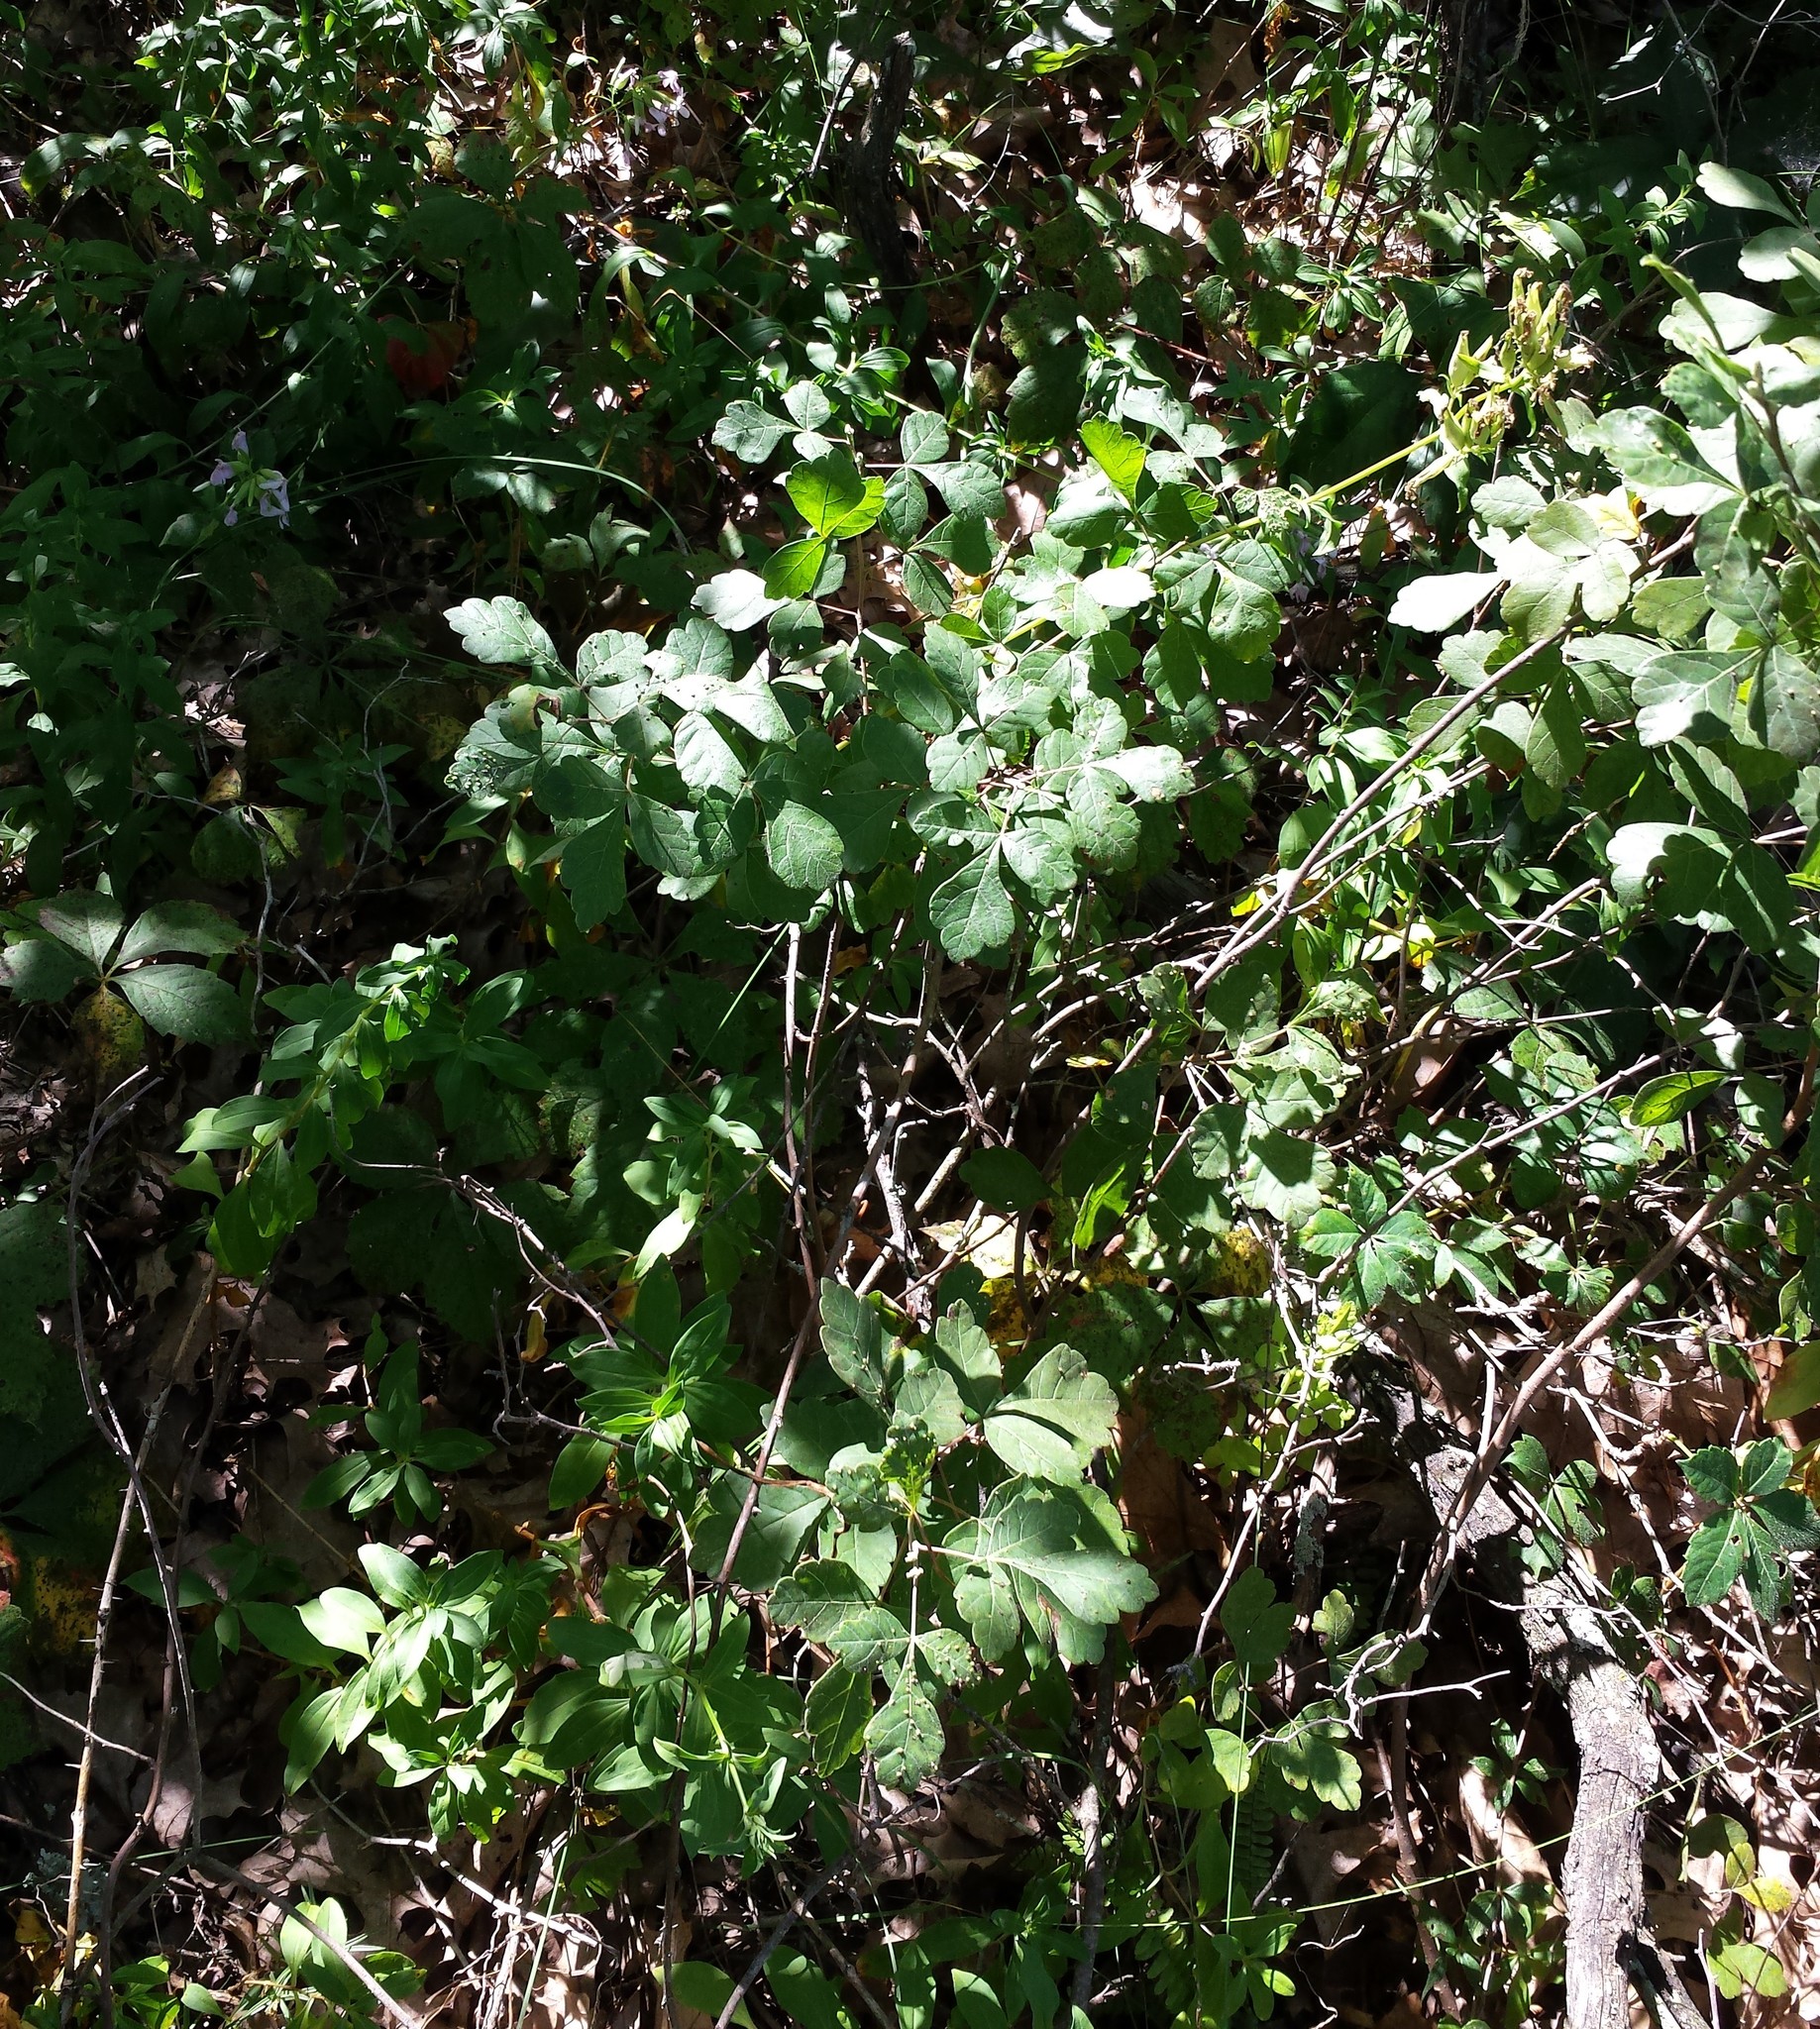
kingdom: Plantae
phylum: Tracheophyta
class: Magnoliopsida
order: Sapindales
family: Anacardiaceae
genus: Rhus
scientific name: Rhus aromatica
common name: Aromatic sumac
